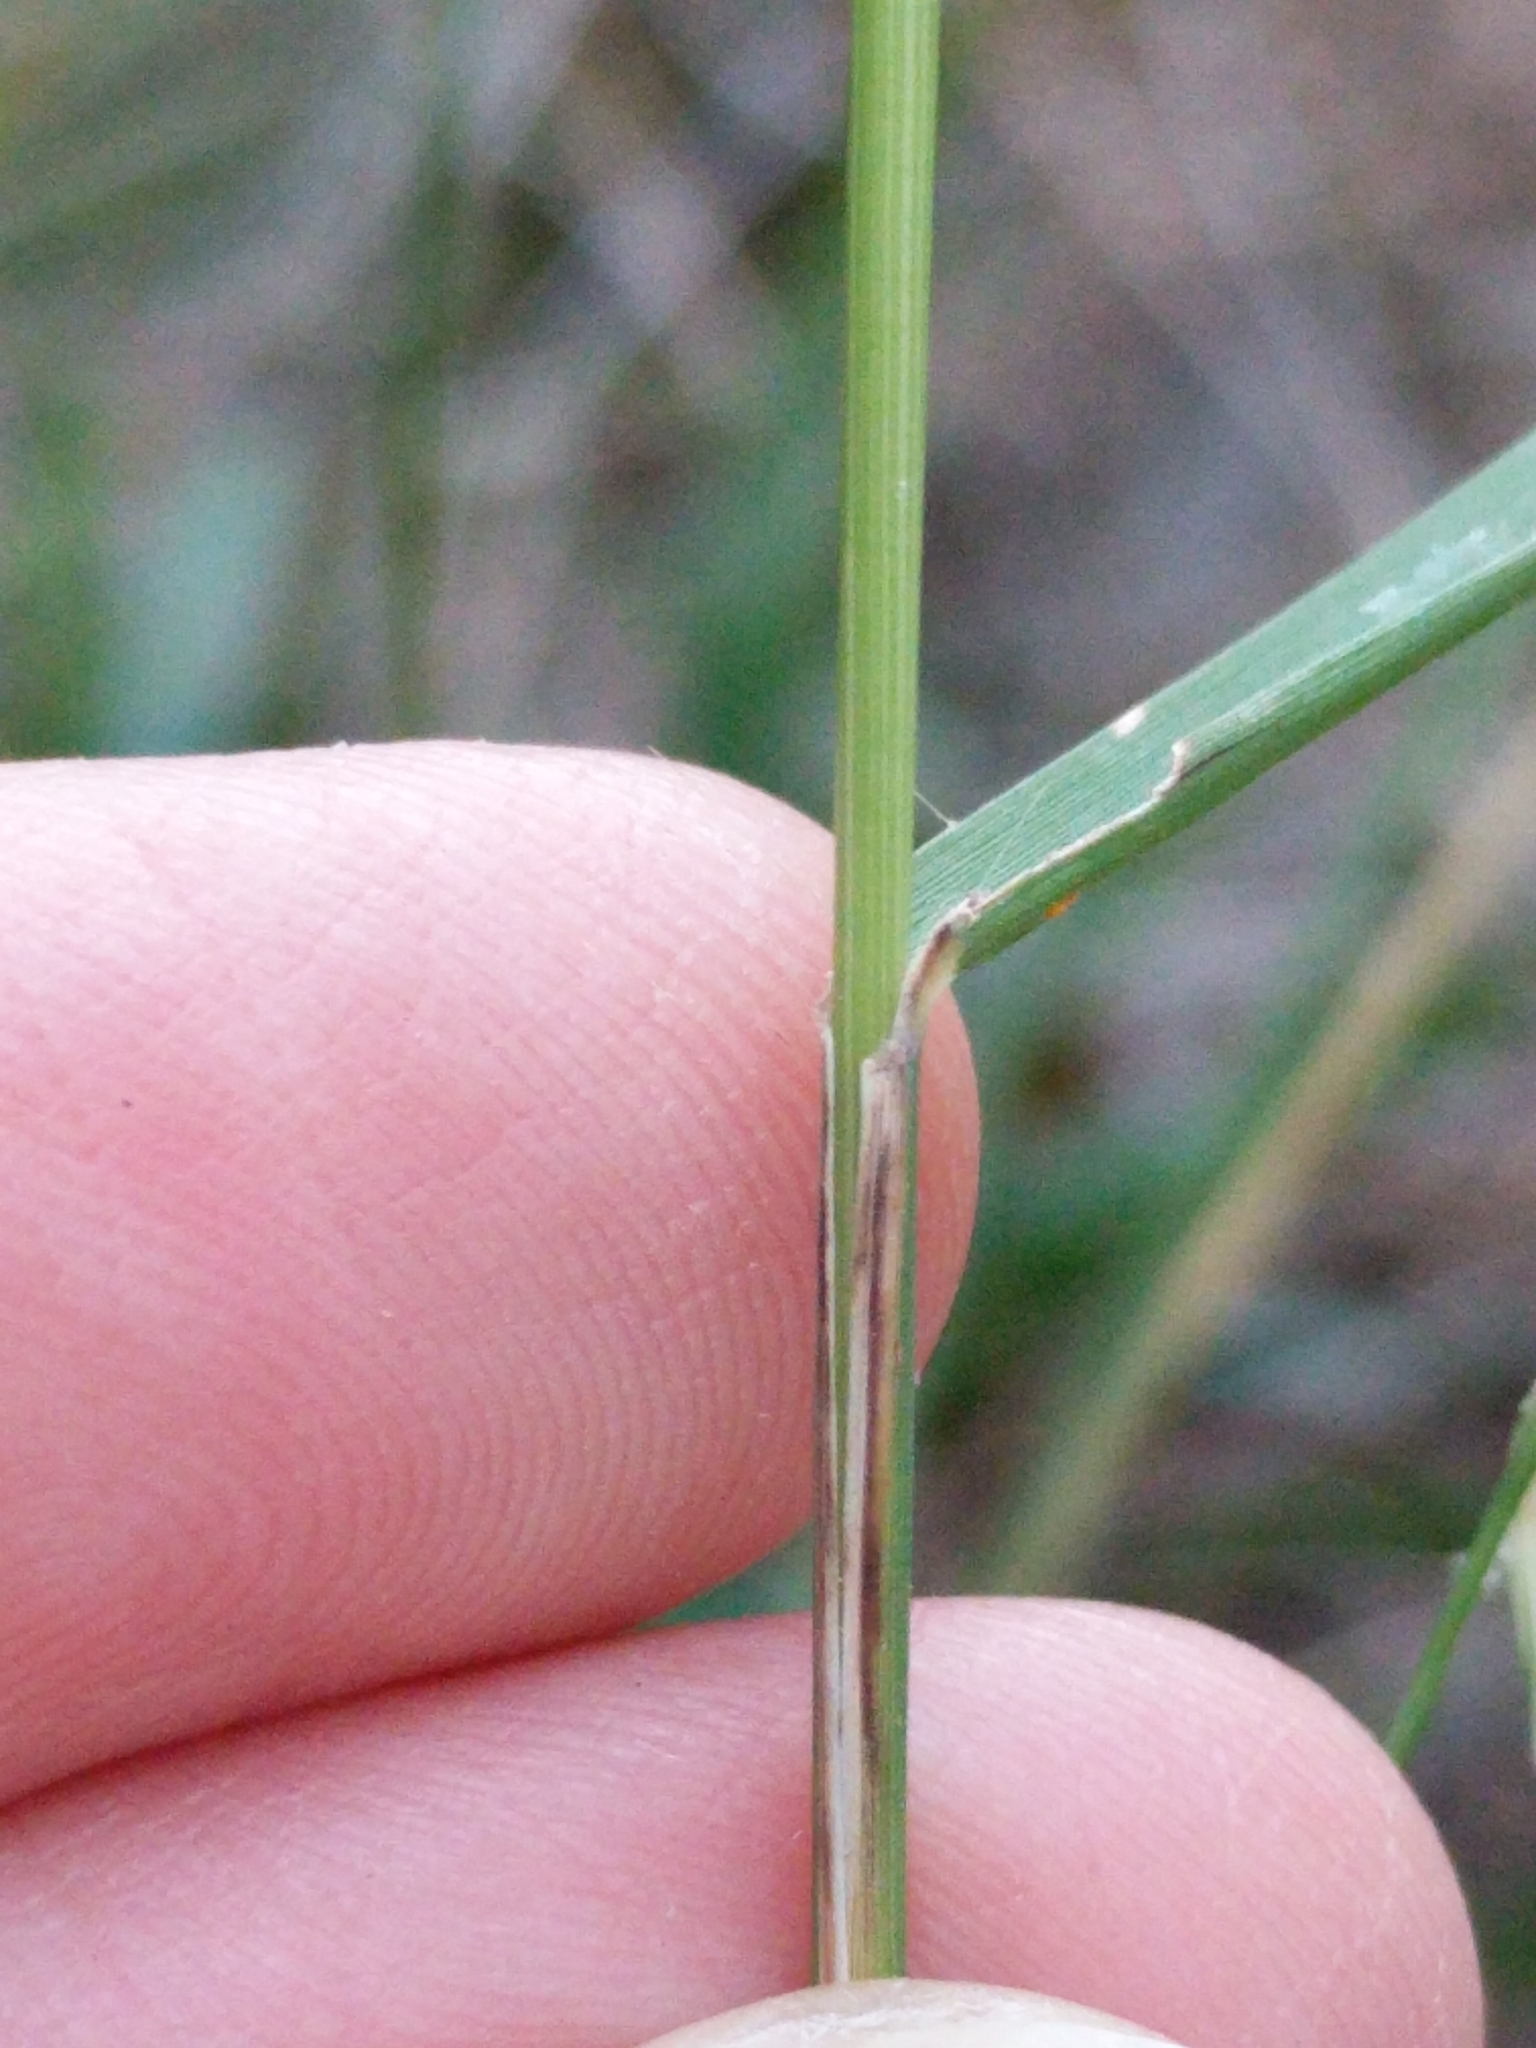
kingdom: Plantae
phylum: Tracheophyta
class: Liliopsida
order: Poales
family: Poaceae
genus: Bouteloua
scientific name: Bouteloua curtipendula
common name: Side-oats grama
